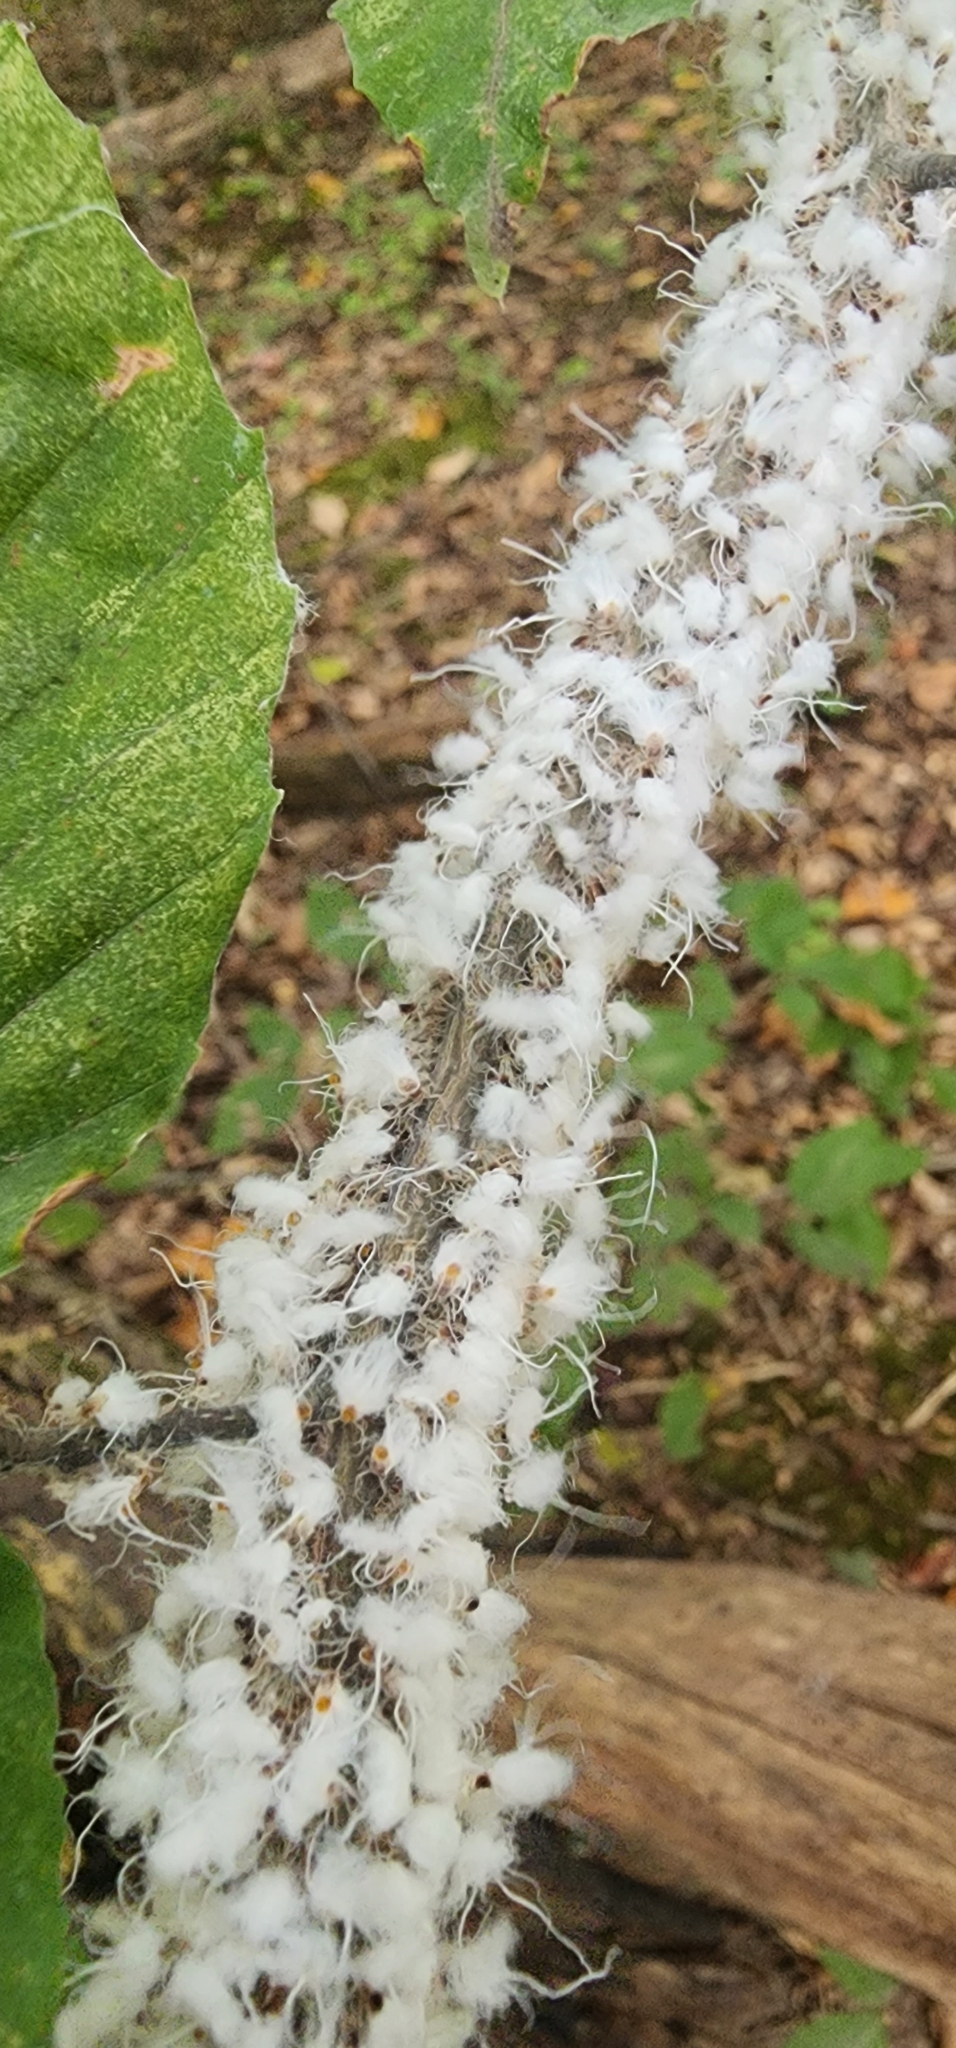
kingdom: Animalia
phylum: Arthropoda
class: Insecta
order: Hemiptera
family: Aphididae
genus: Grylloprociphilus
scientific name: Grylloprociphilus imbricator
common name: Beech blight aphid
